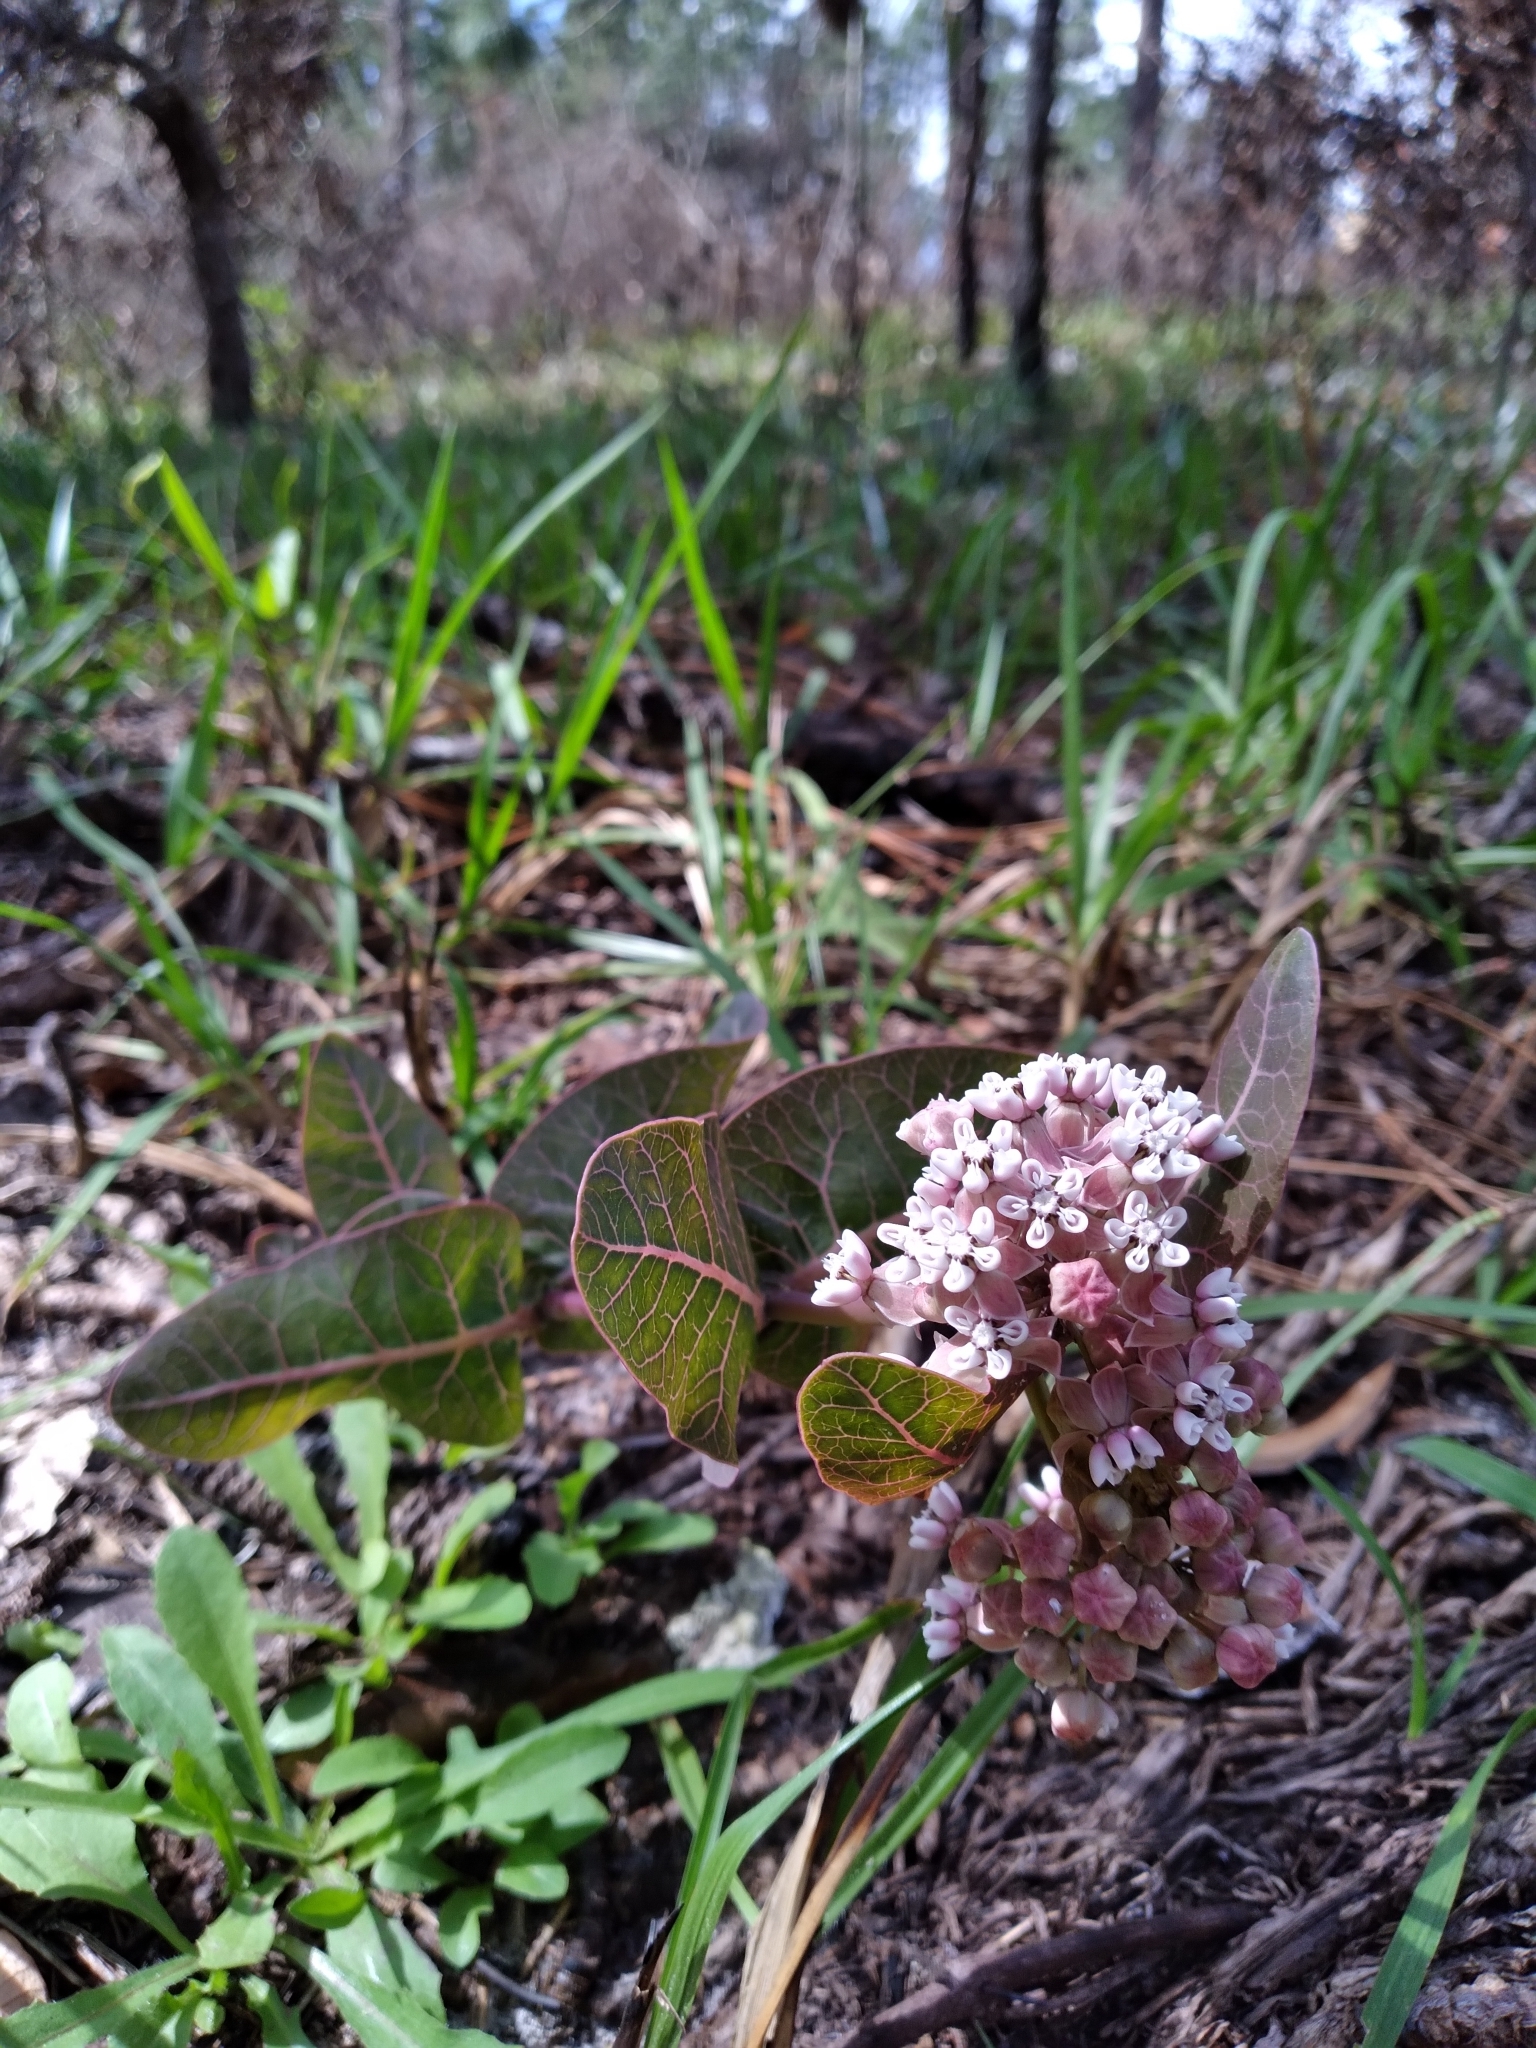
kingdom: Plantae
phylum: Tracheophyta
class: Magnoliopsida
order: Gentianales
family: Apocynaceae
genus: Asclepias
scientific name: Asclepias humistrata
